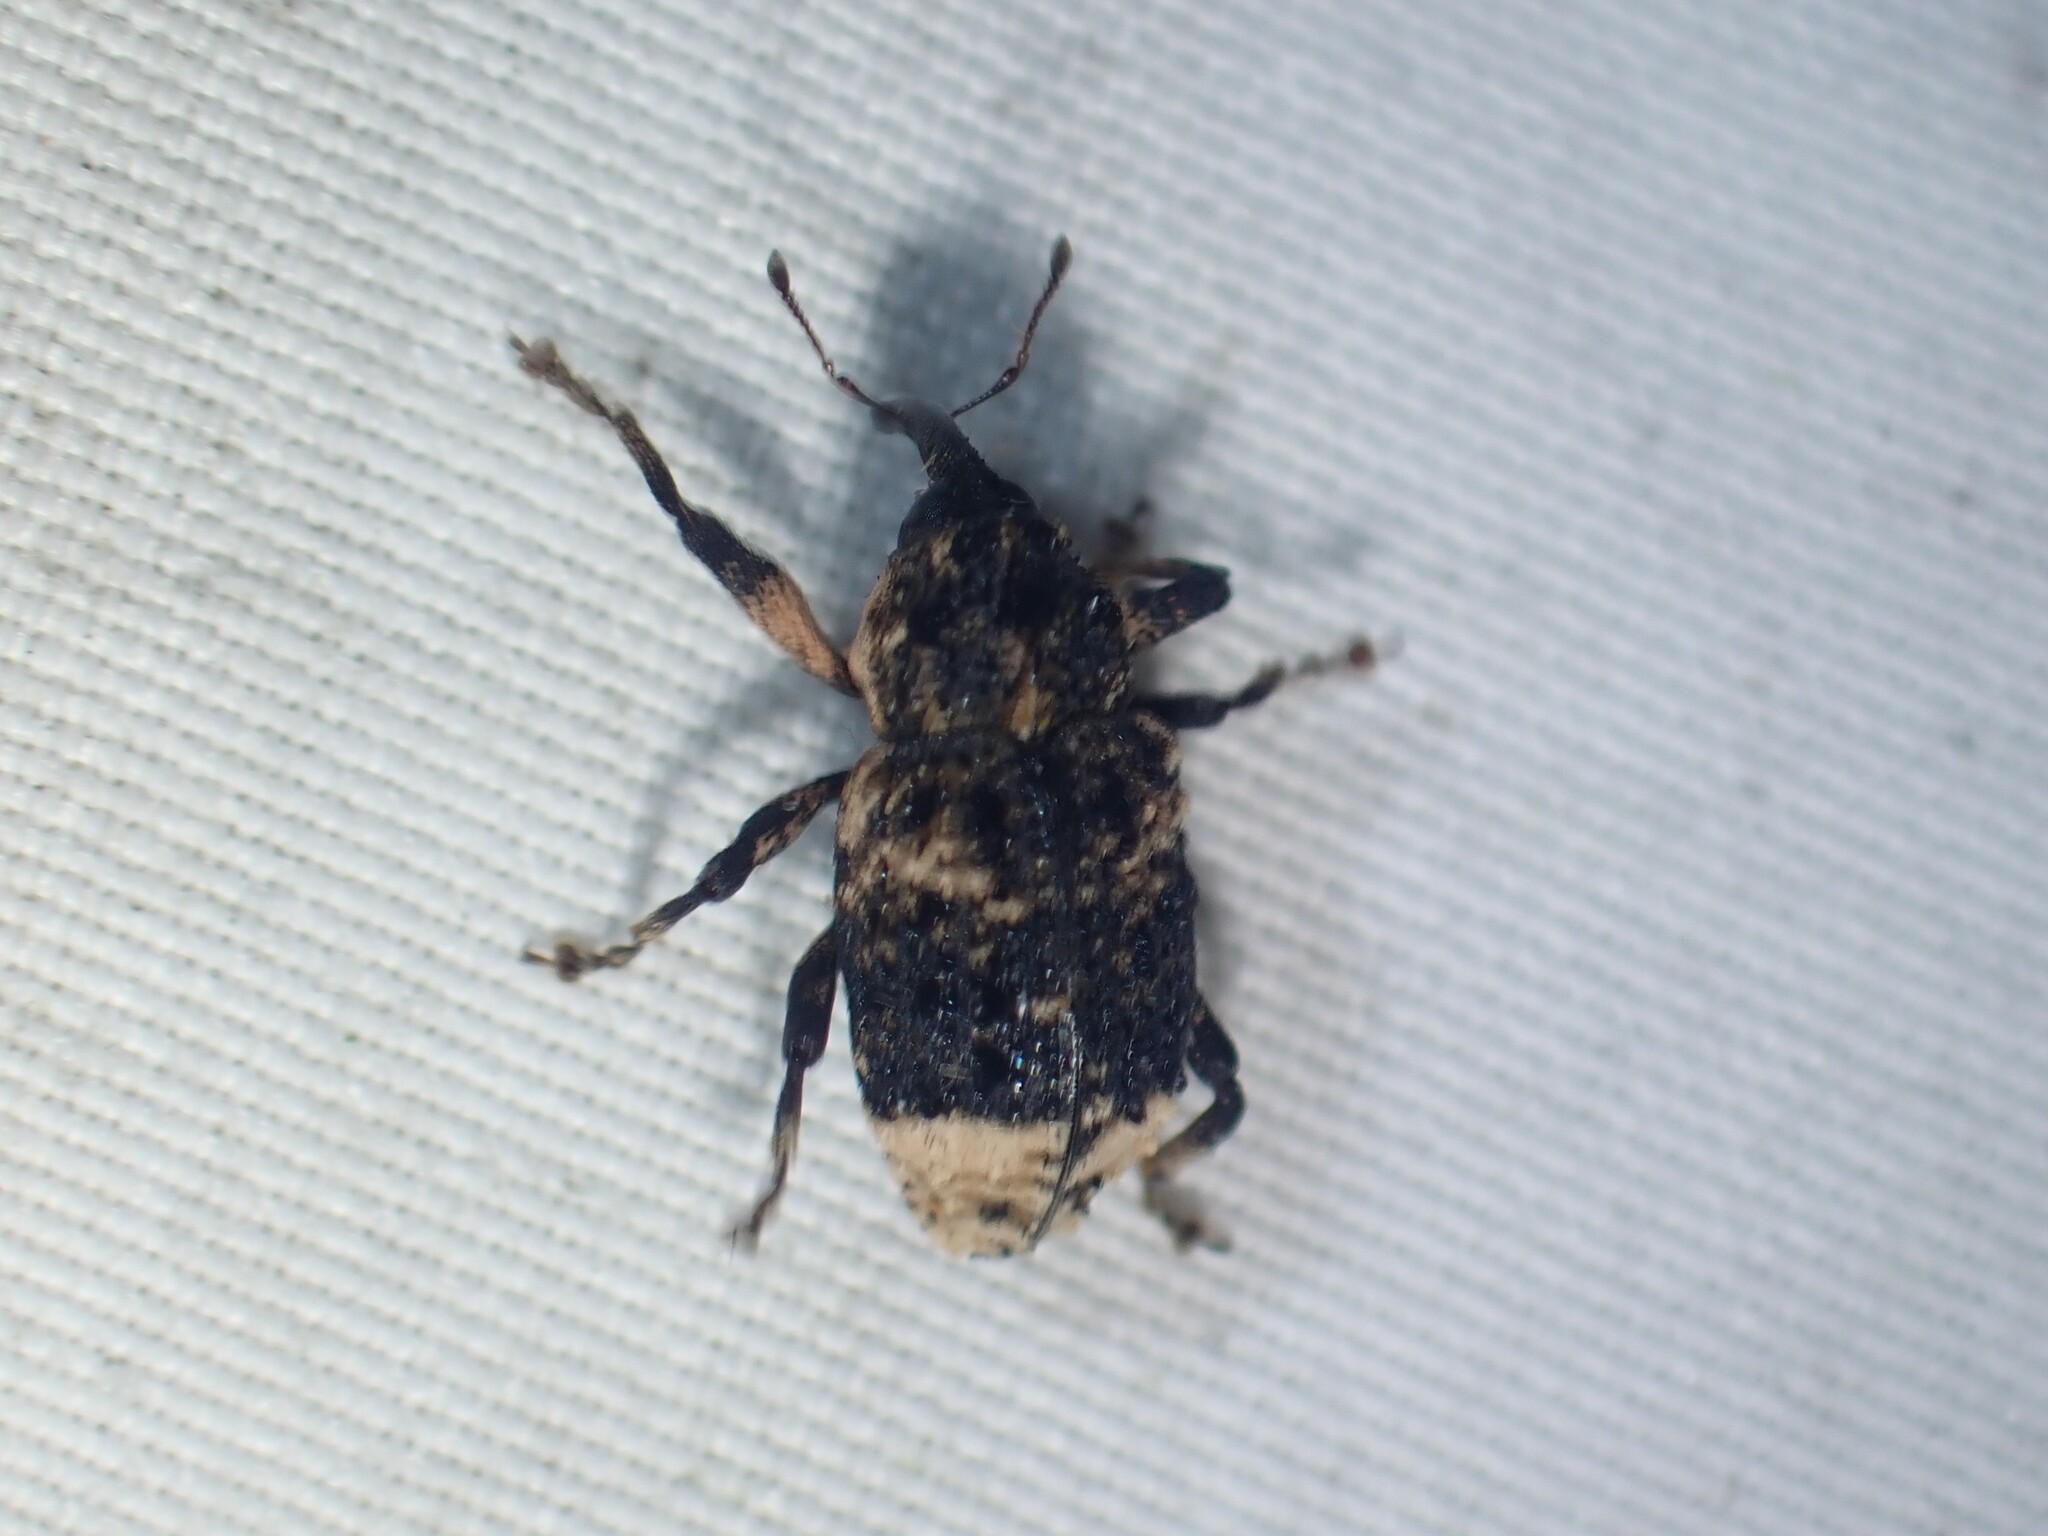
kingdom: Animalia
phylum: Arthropoda
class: Insecta
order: Coleoptera
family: Curculionidae
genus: Cryptorhynchus
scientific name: Cryptorhynchus lapathi
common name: Weevil
